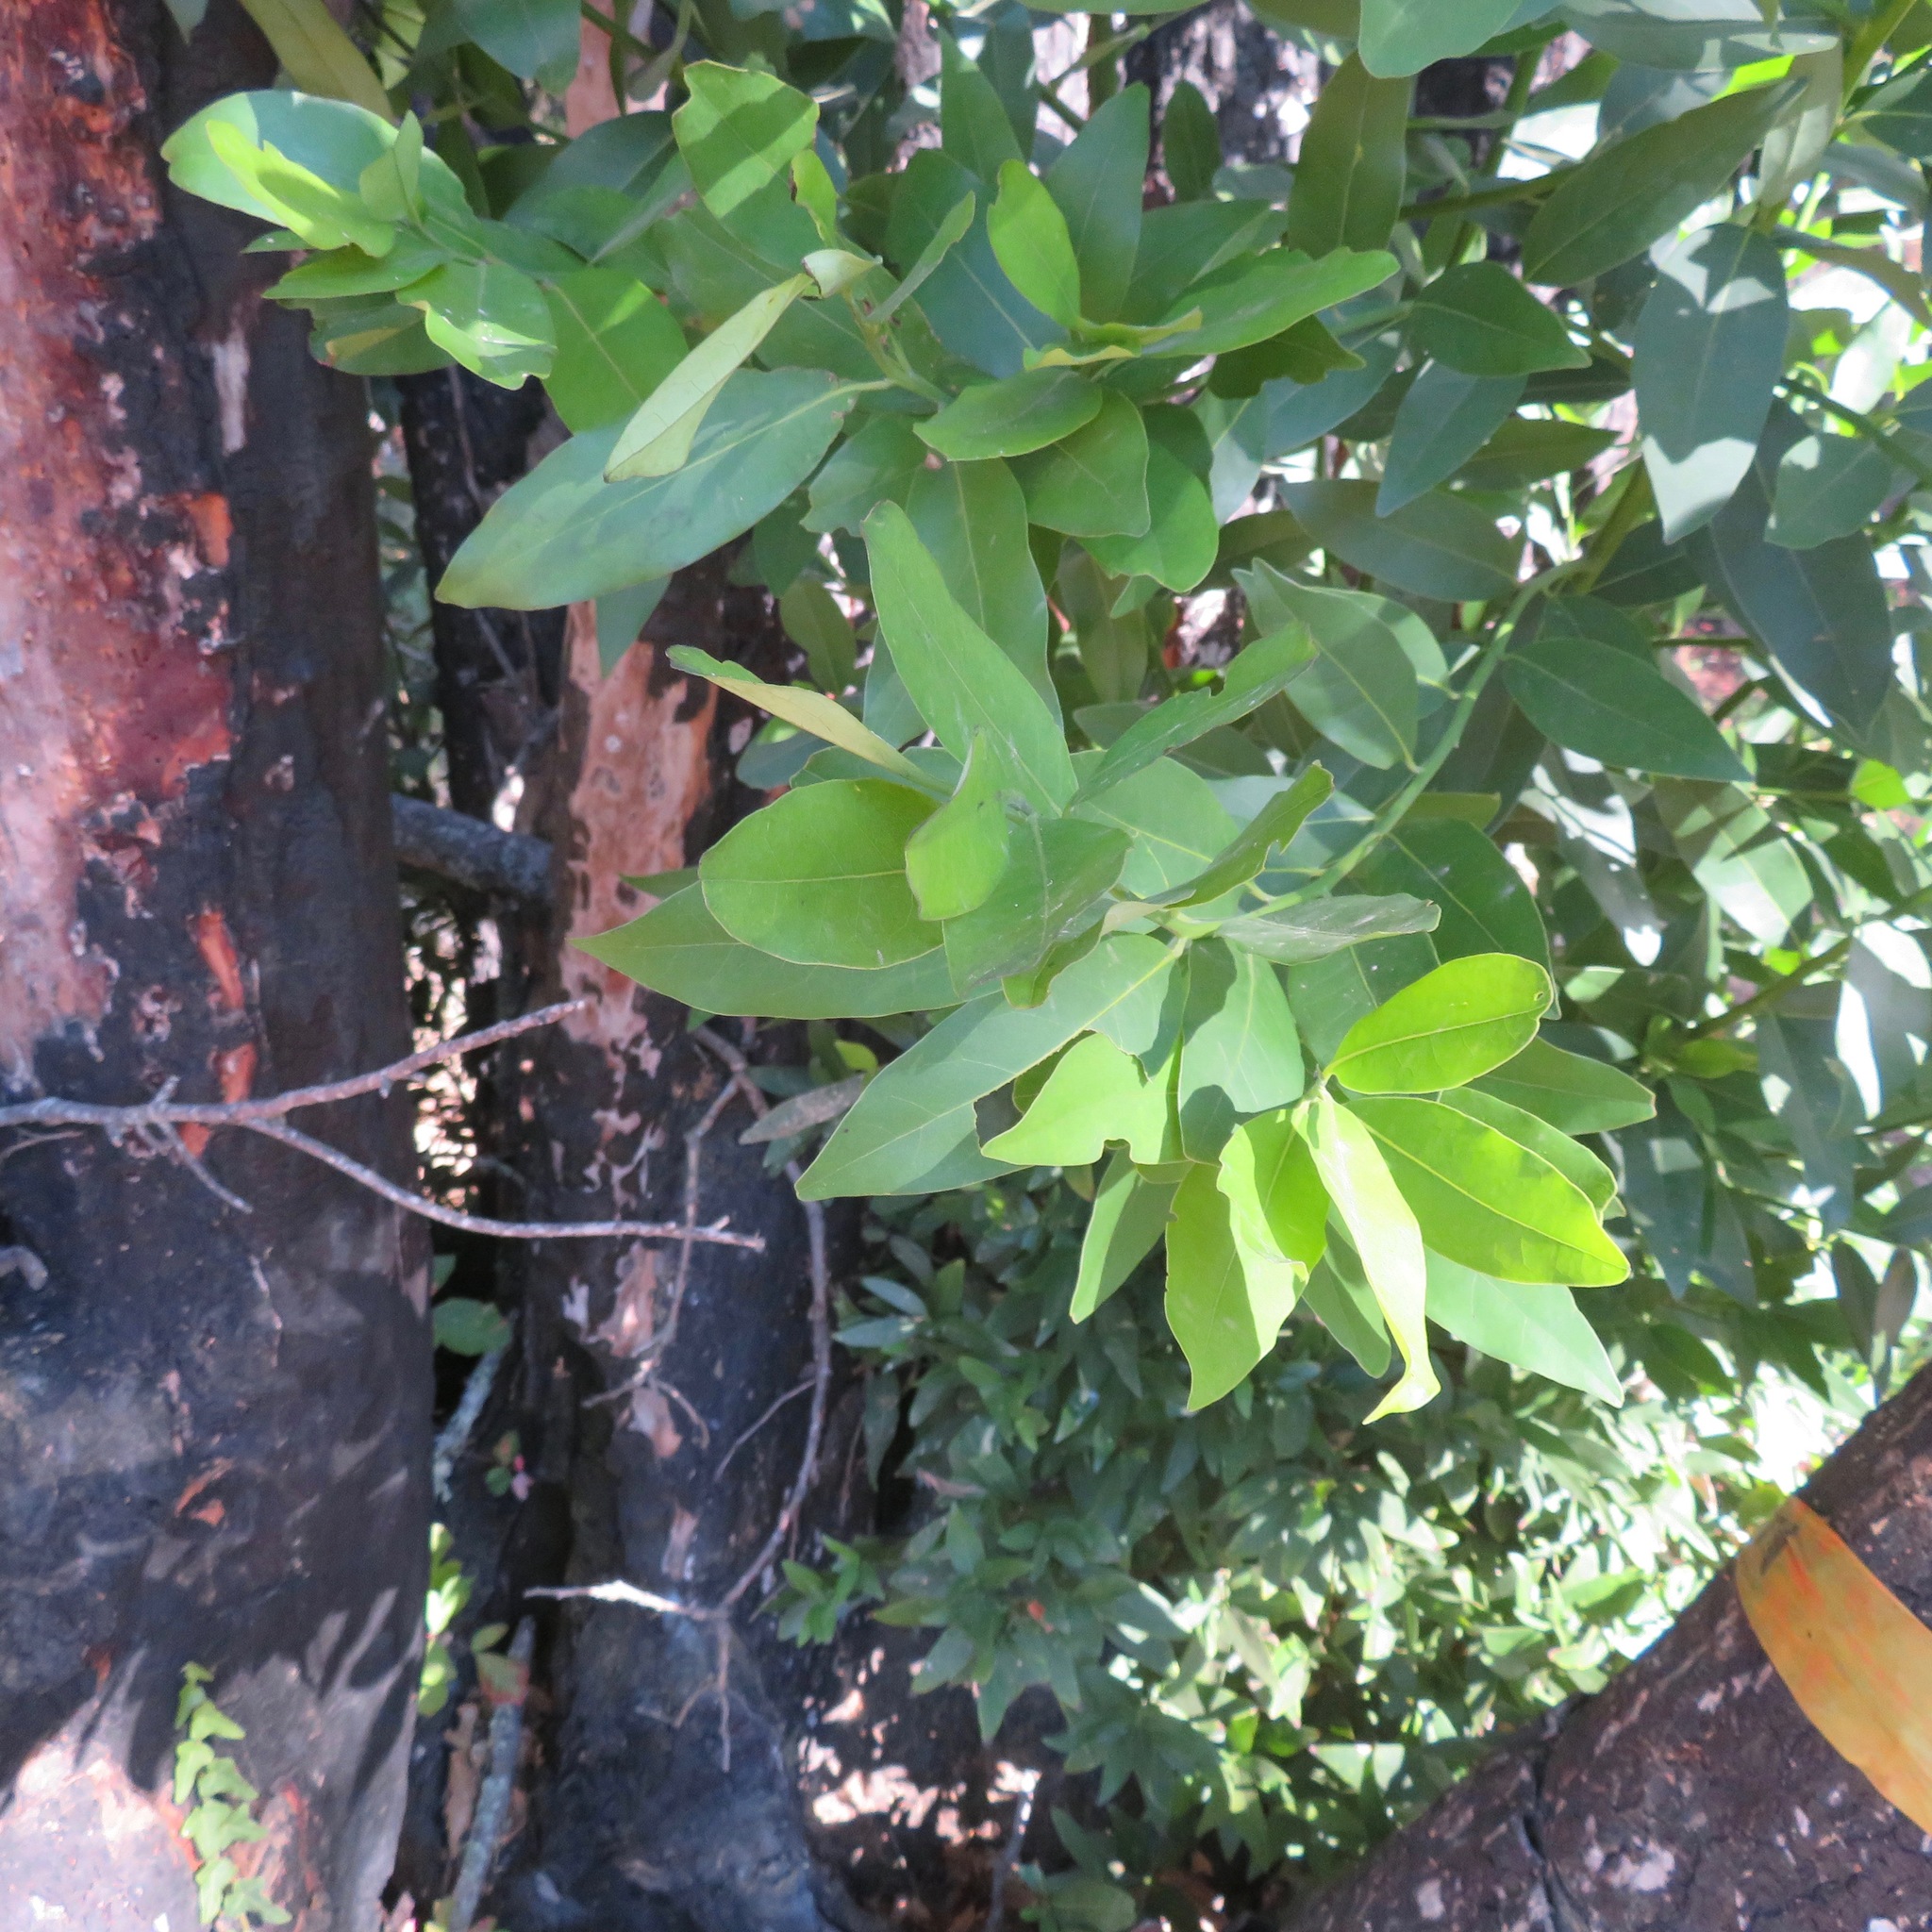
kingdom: Plantae
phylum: Tracheophyta
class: Magnoliopsida
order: Laurales
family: Lauraceae
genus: Umbellularia
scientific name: Umbellularia californica
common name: California bay
